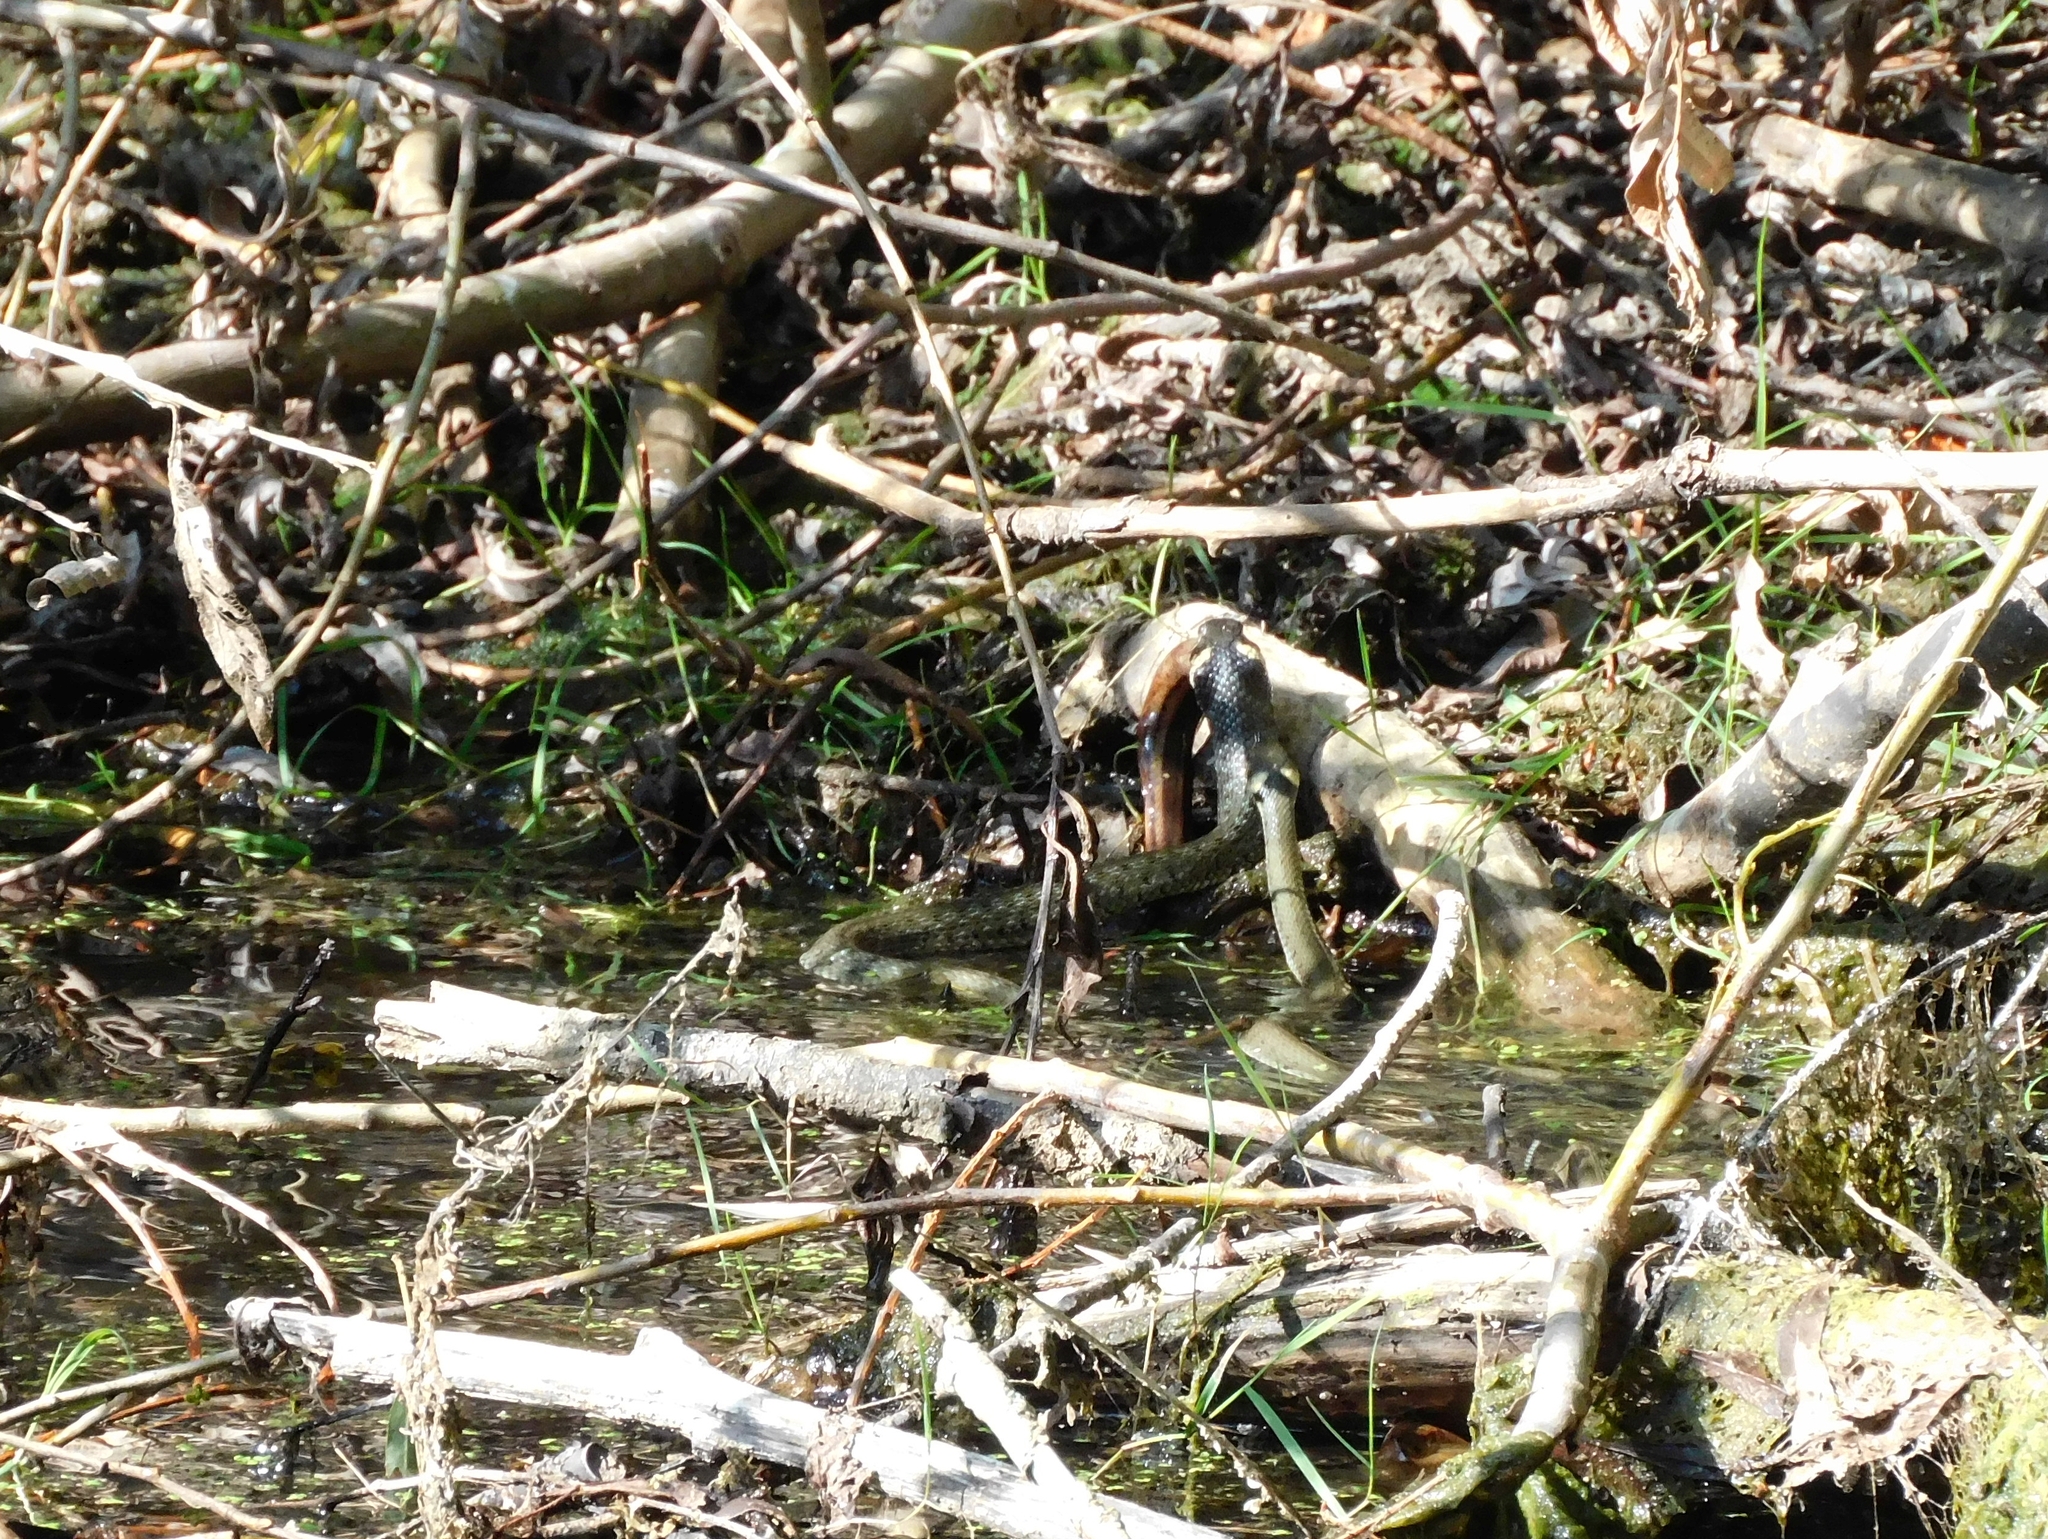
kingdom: Animalia
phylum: Chordata
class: Squamata
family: Colubridae
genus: Natrix
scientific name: Natrix natrix
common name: Grass snake
